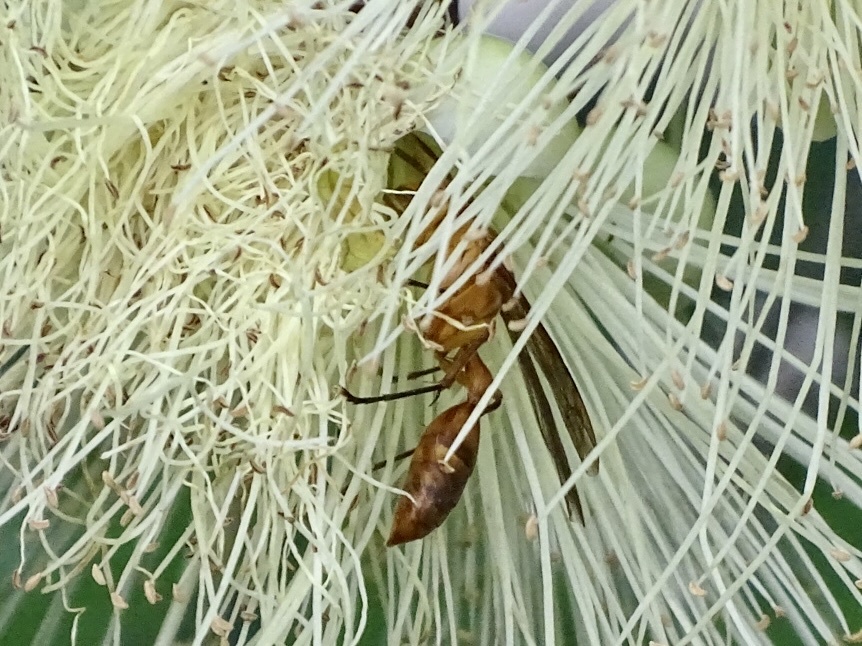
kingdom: Animalia
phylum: Arthropoda
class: Insecta
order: Hymenoptera
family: Vespidae
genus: Parapolybia
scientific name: Parapolybia indica
